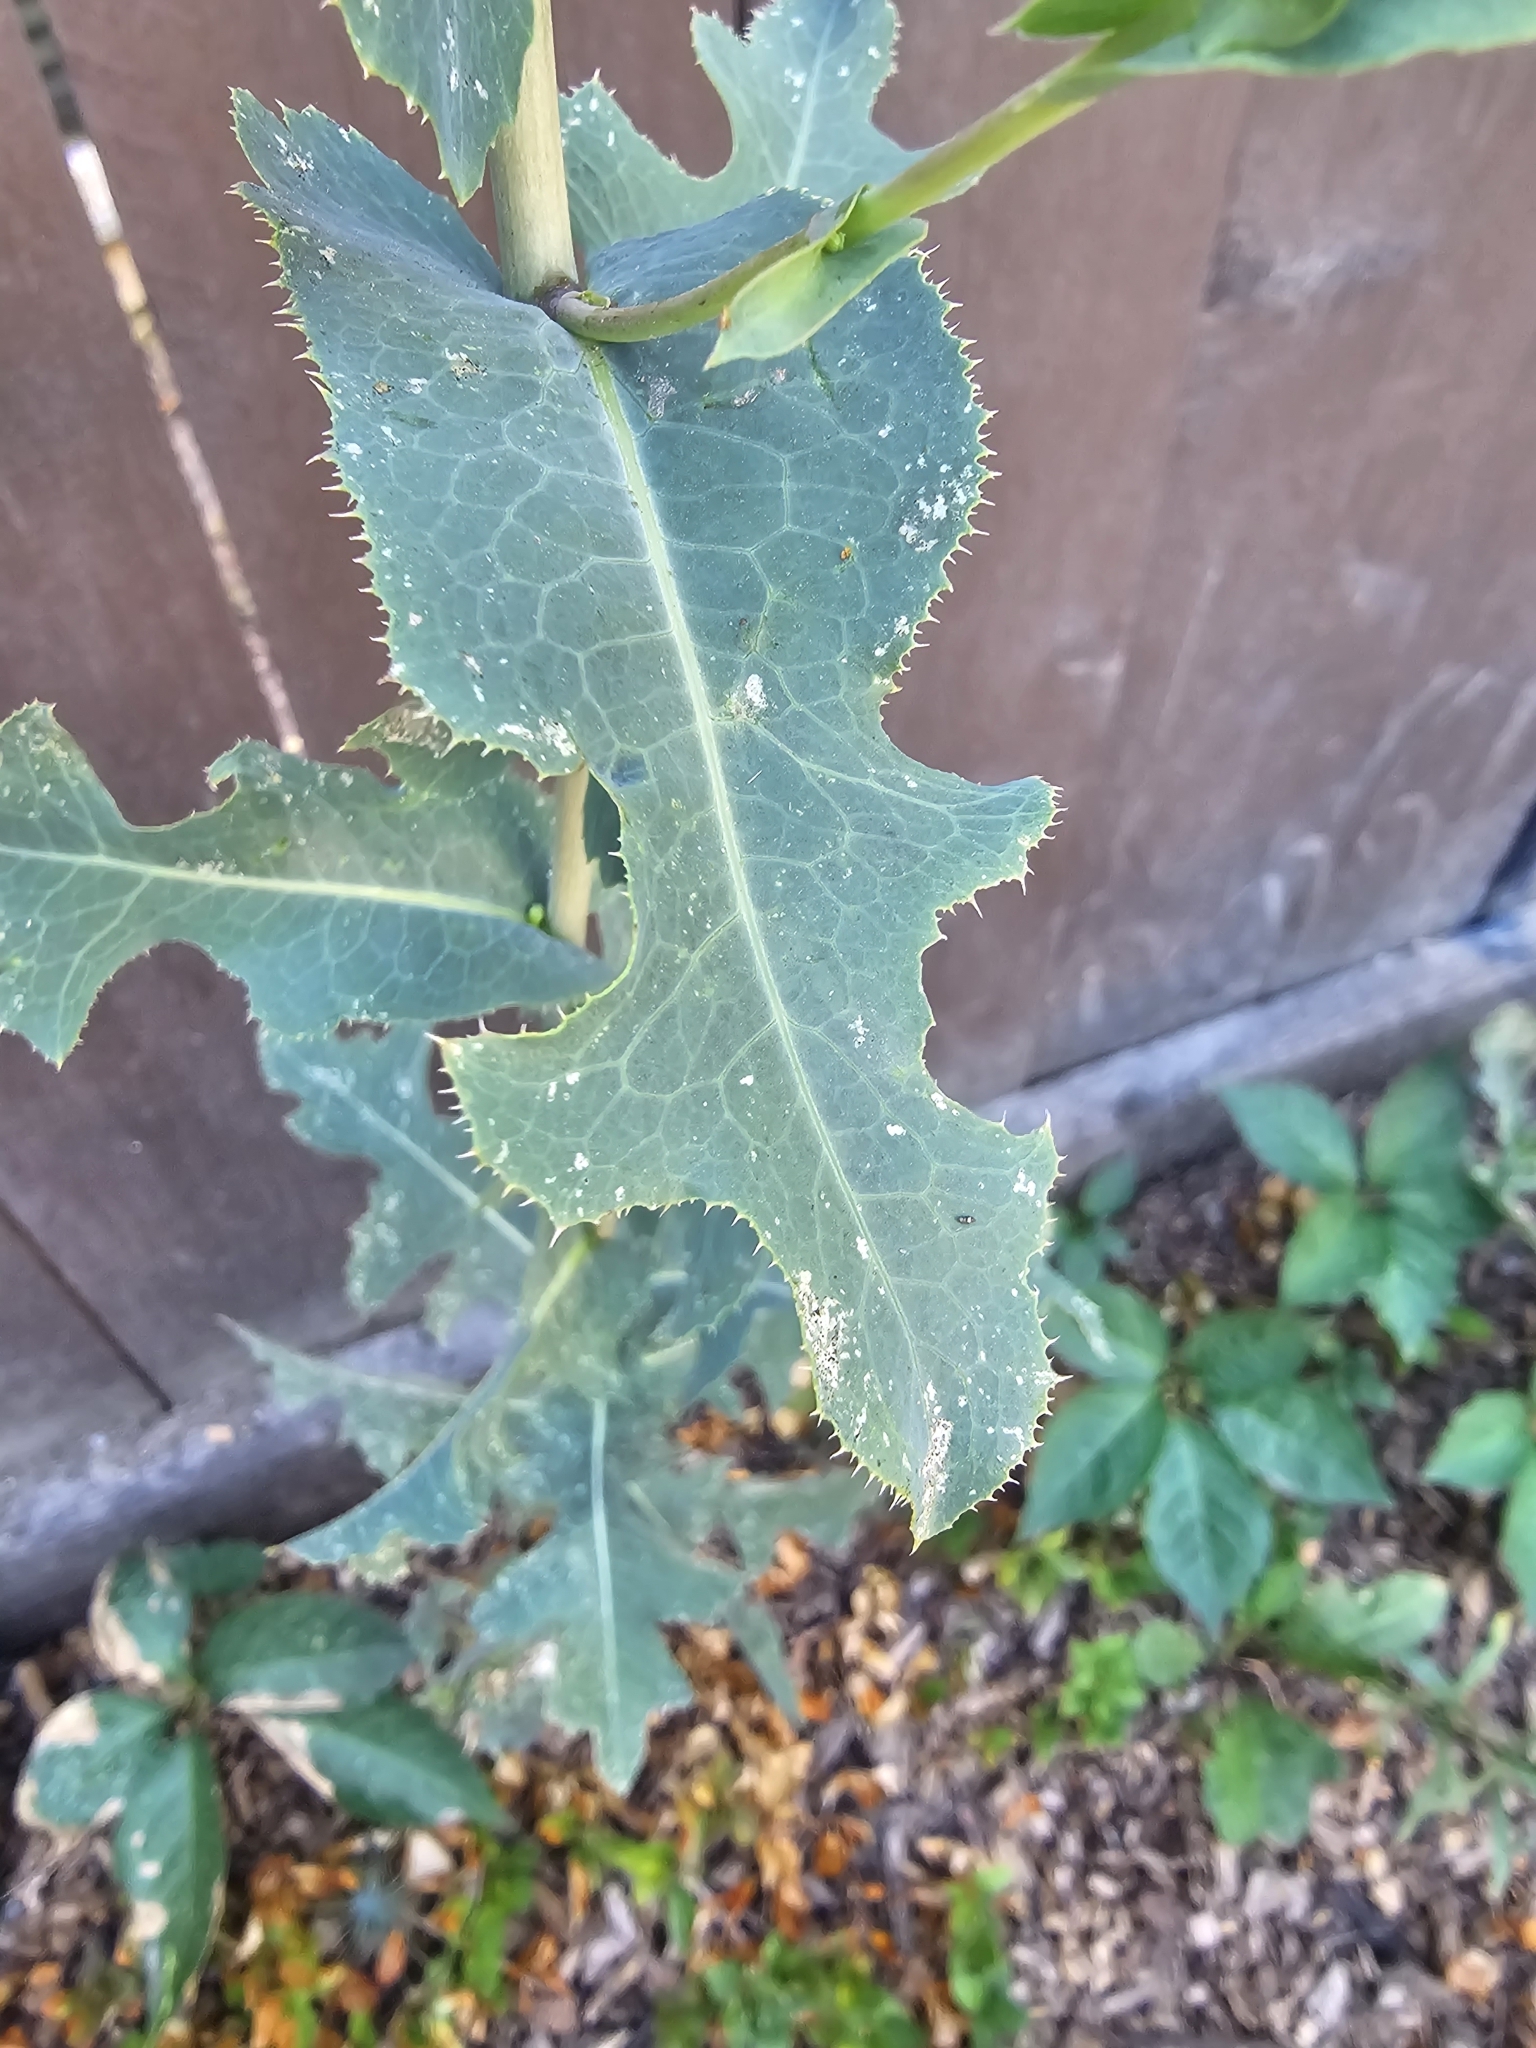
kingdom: Plantae
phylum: Tracheophyta
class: Magnoliopsida
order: Asterales
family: Asteraceae
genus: Lactuca
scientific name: Lactuca serriola
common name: Prickly lettuce
